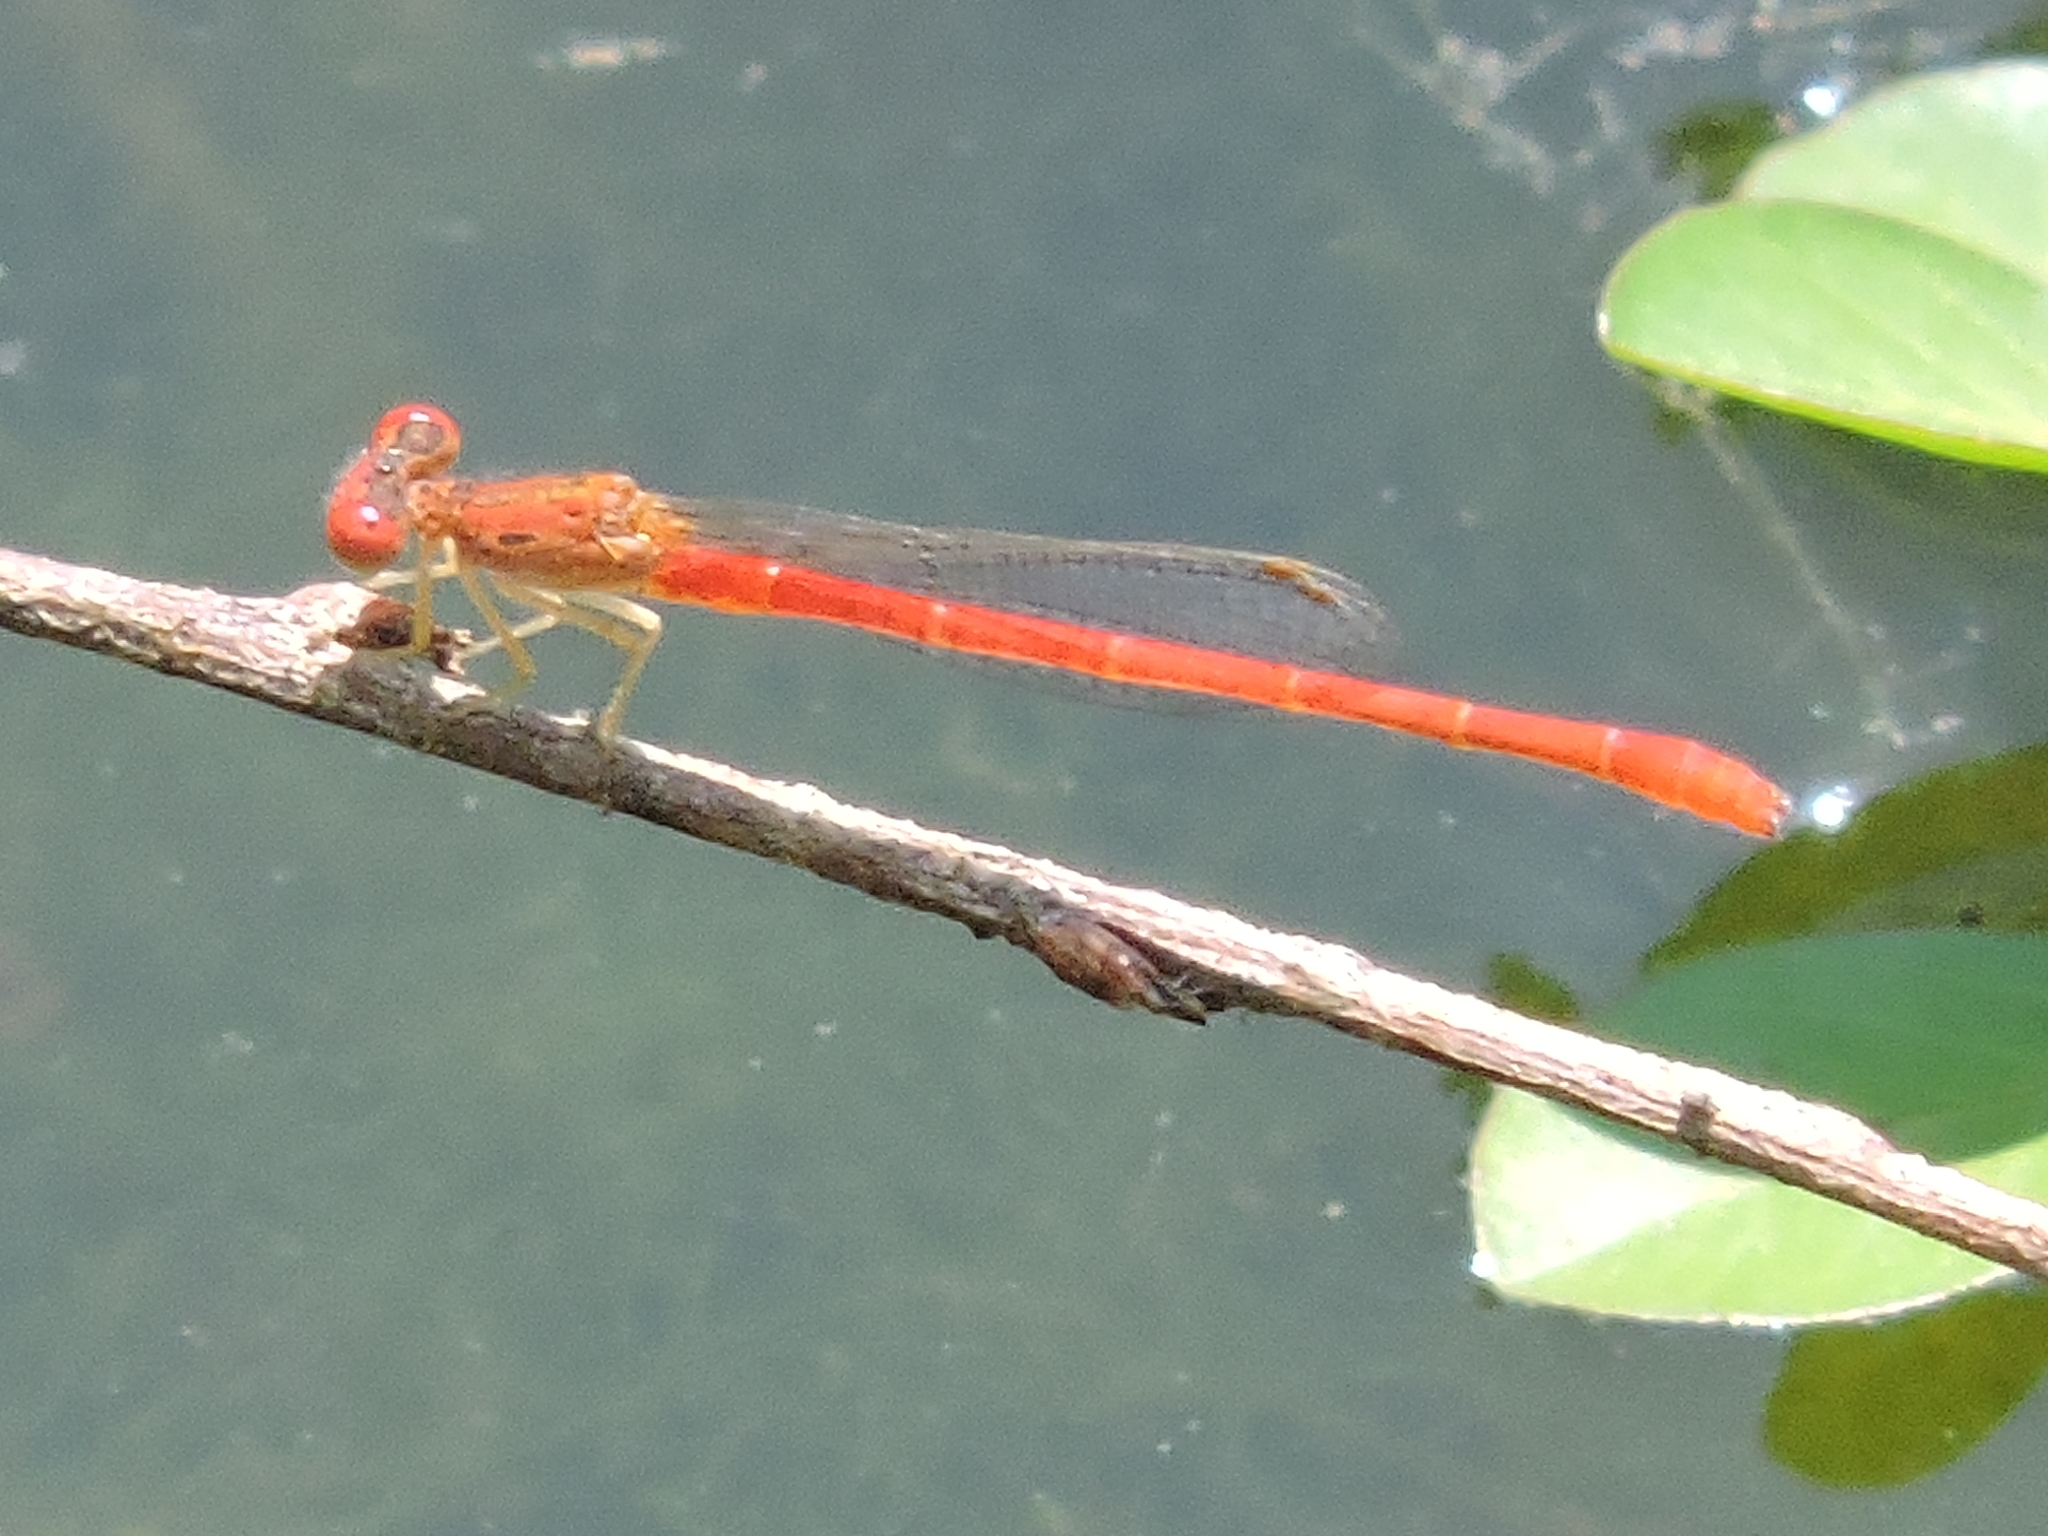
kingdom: Animalia
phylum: Arthropoda
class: Insecta
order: Odonata
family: Coenagrionidae
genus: Telebasis
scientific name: Telebasis salva
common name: Desert firetail
